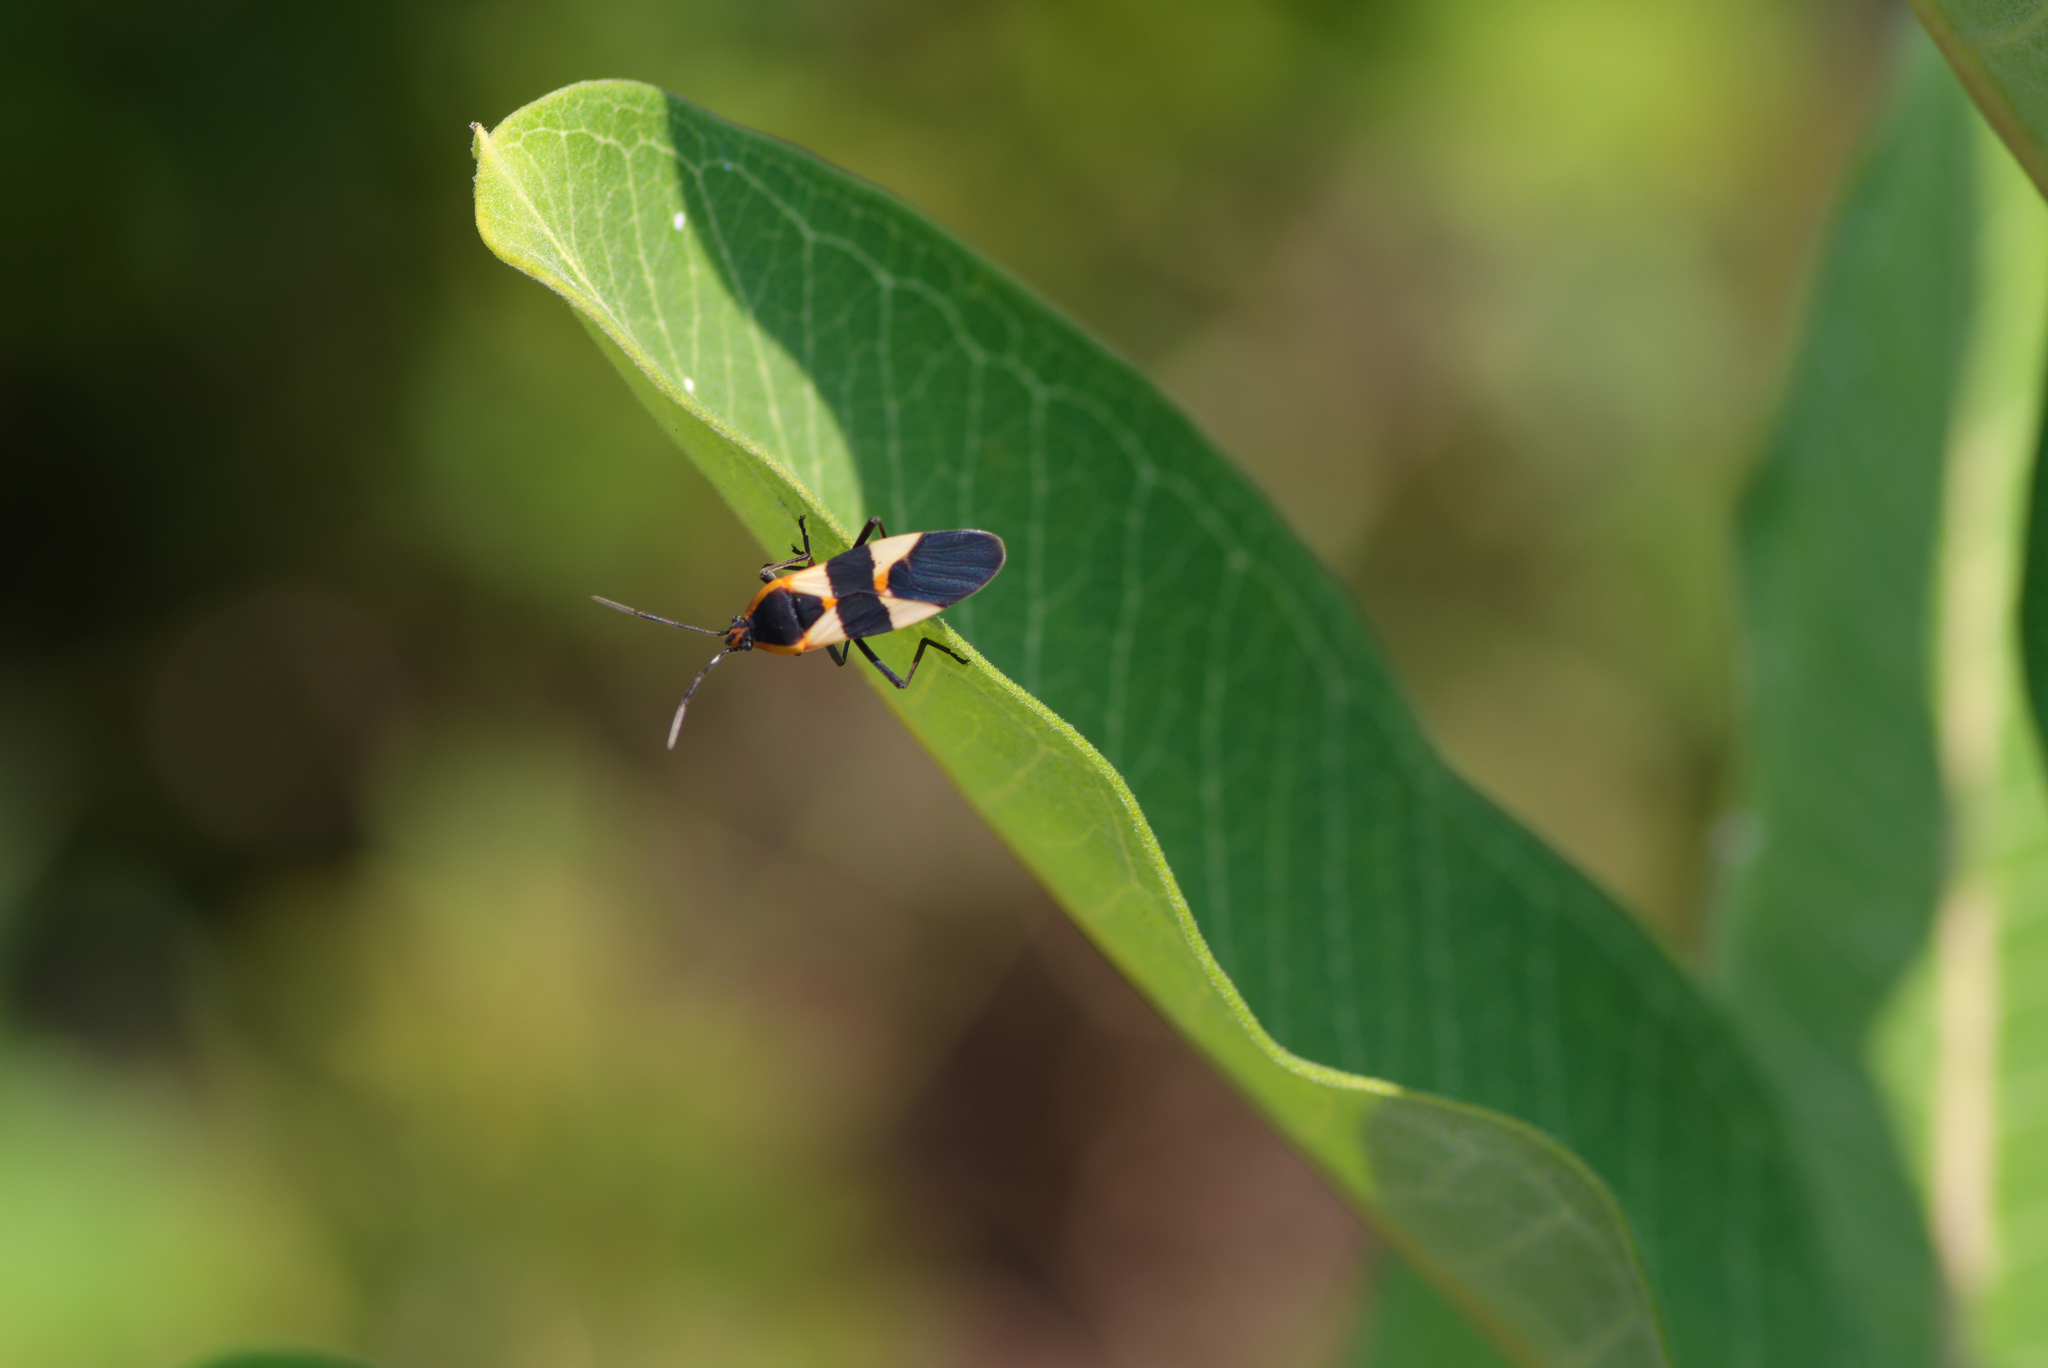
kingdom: Animalia
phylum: Arthropoda
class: Insecta
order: Hemiptera
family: Lygaeidae
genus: Oncopeltus
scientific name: Oncopeltus fasciatus
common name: Large milkweed bug
